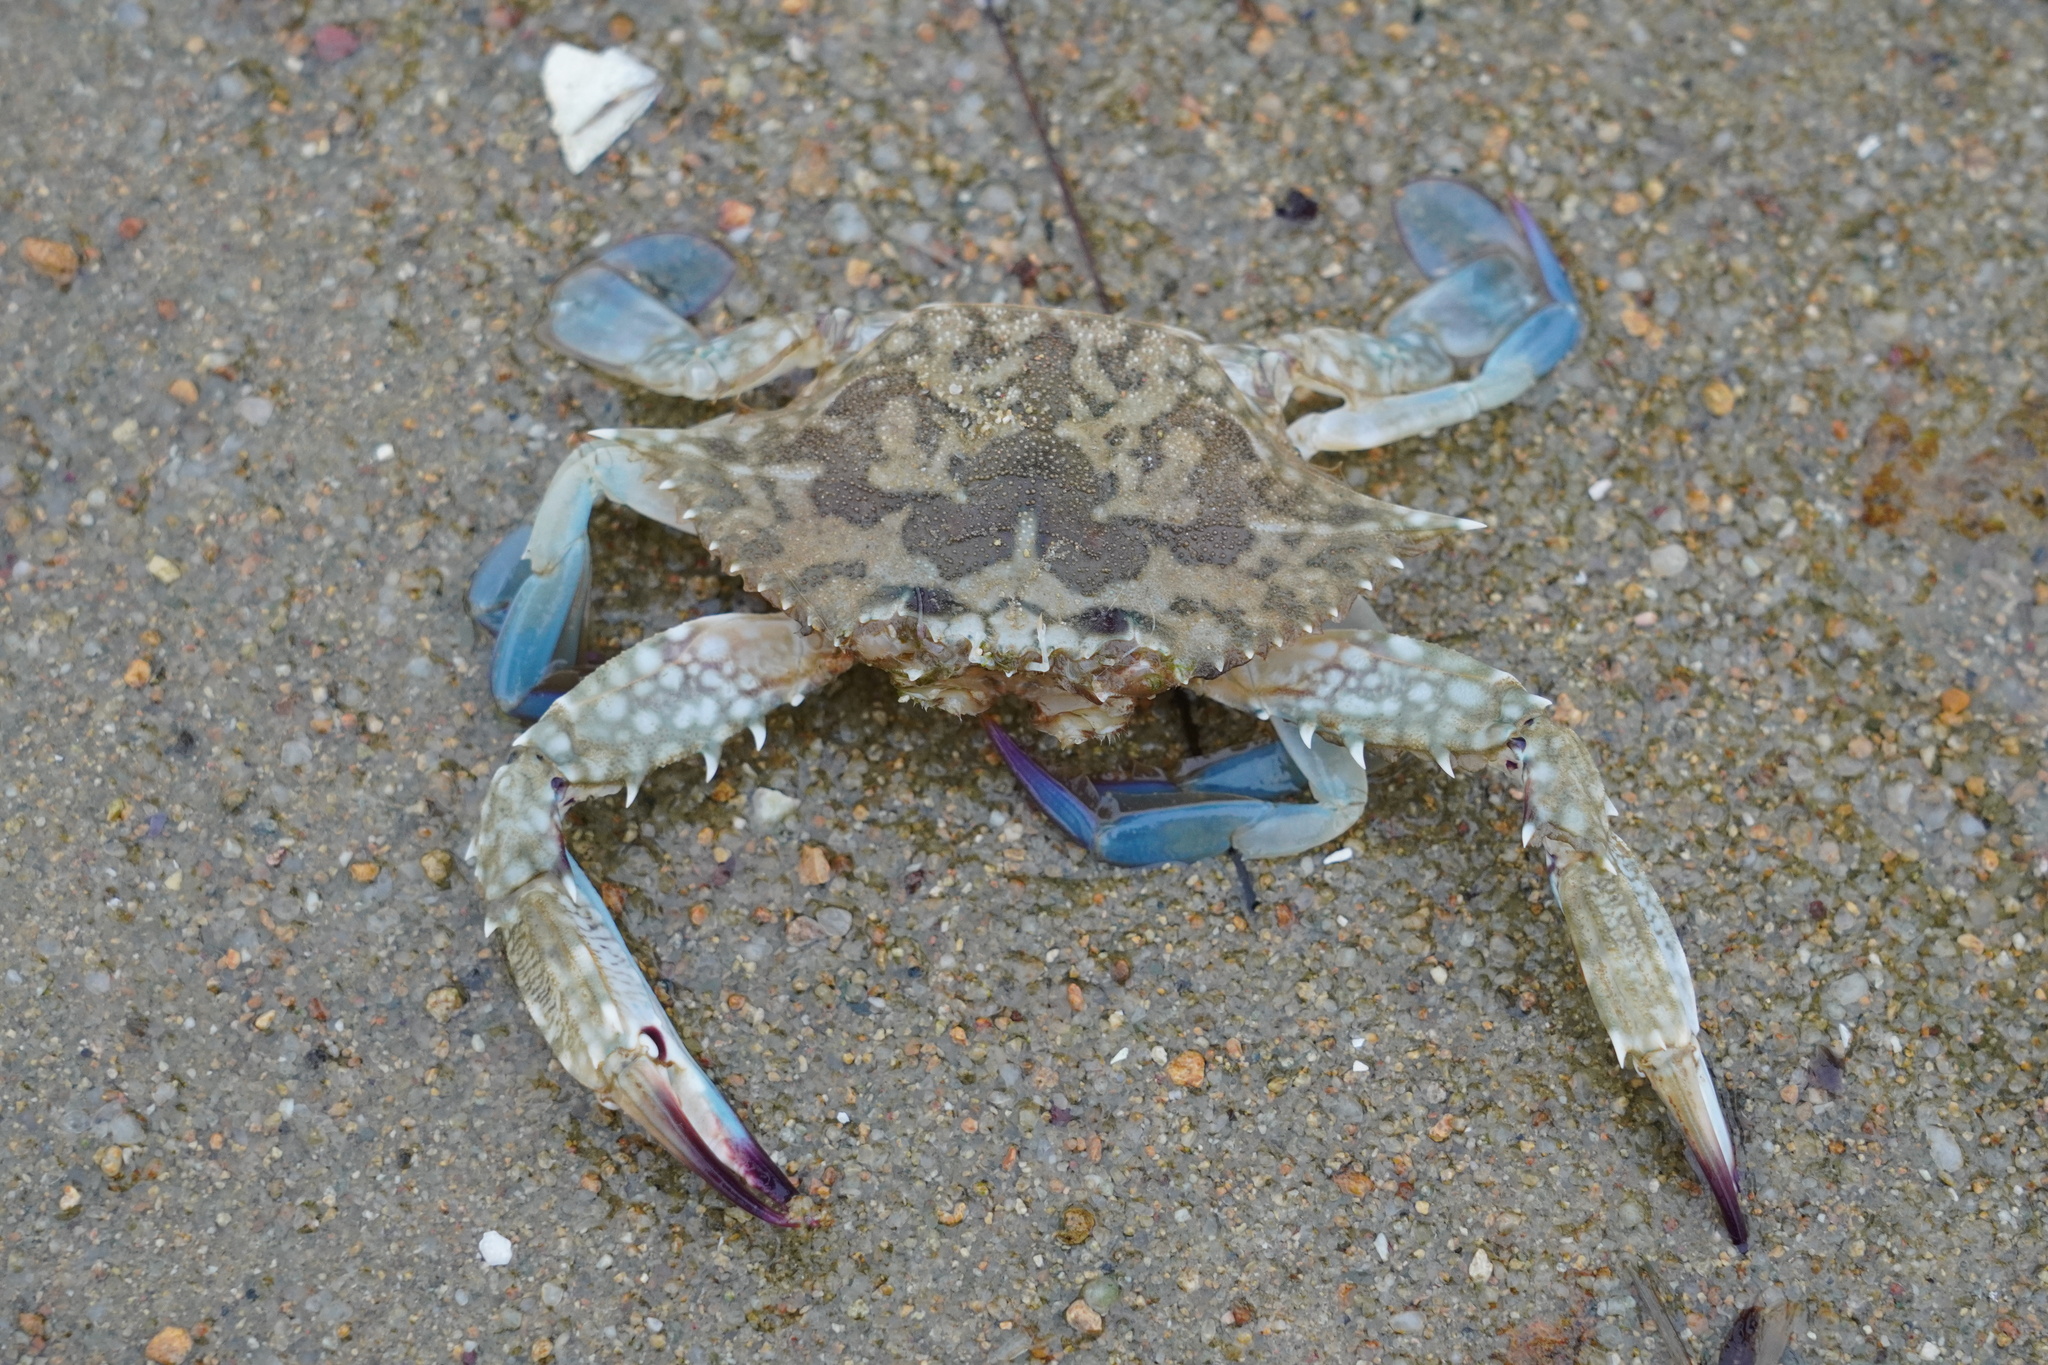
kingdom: Animalia
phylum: Arthropoda
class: Malacostraca
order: Decapoda
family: Portunidae
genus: Portunus
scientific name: Portunus pelagicus
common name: Blue swimming crab
